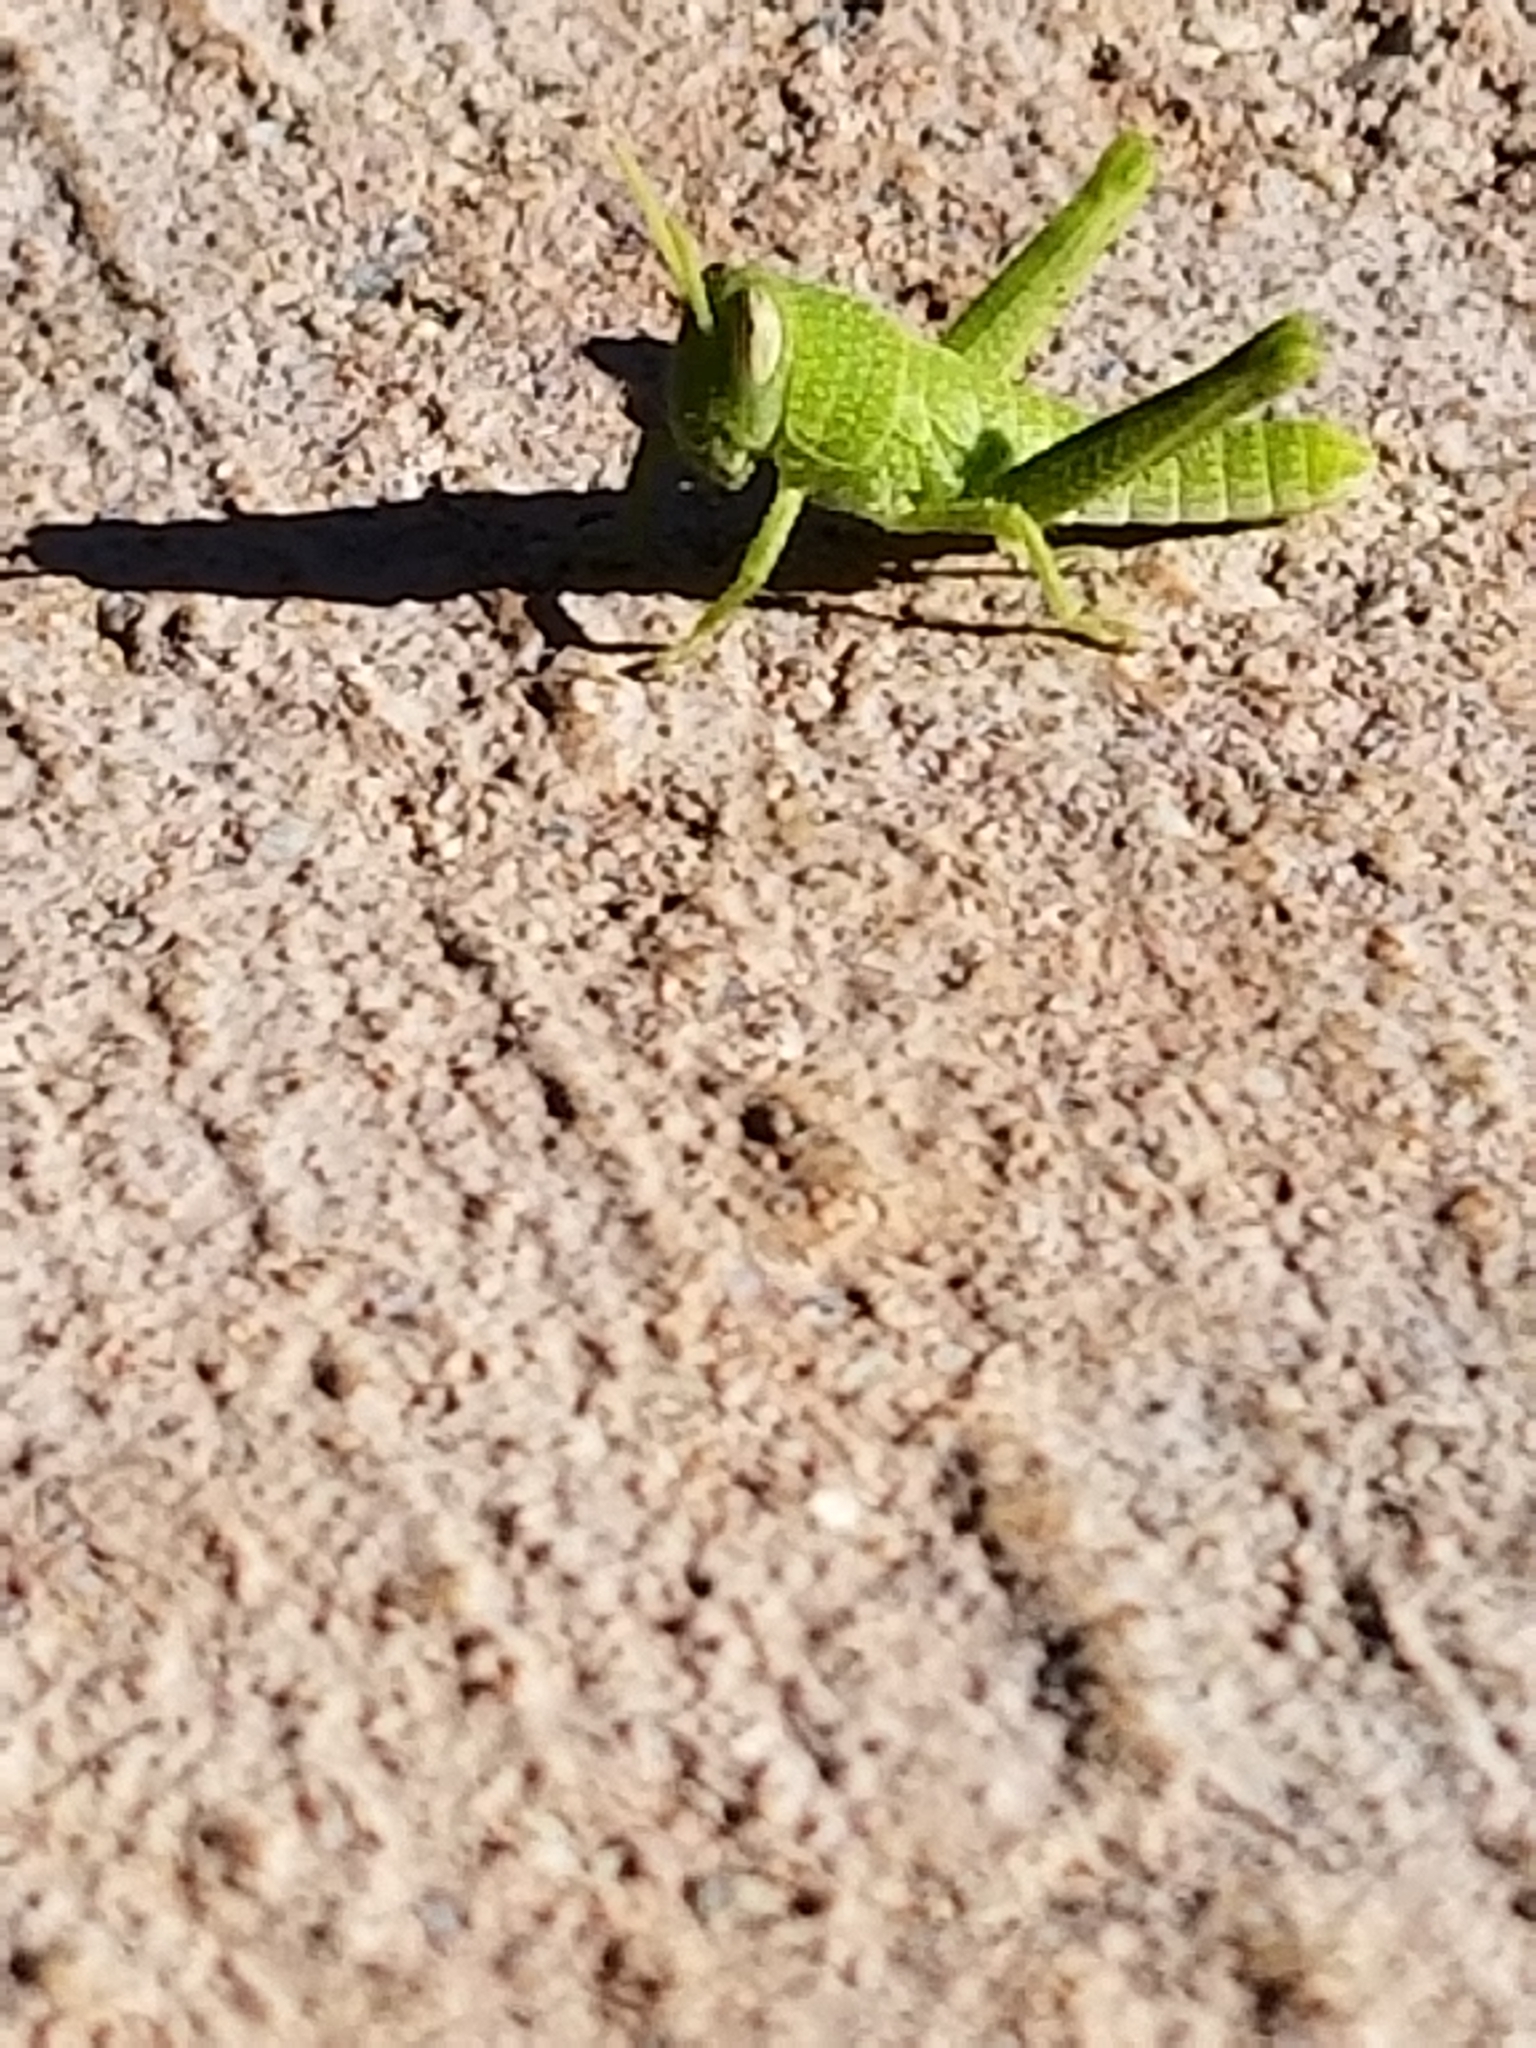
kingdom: Animalia
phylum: Arthropoda
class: Insecta
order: Orthoptera
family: Acrididae
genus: Schistocerca
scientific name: Schistocerca nitens
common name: Vagrant grasshopper
